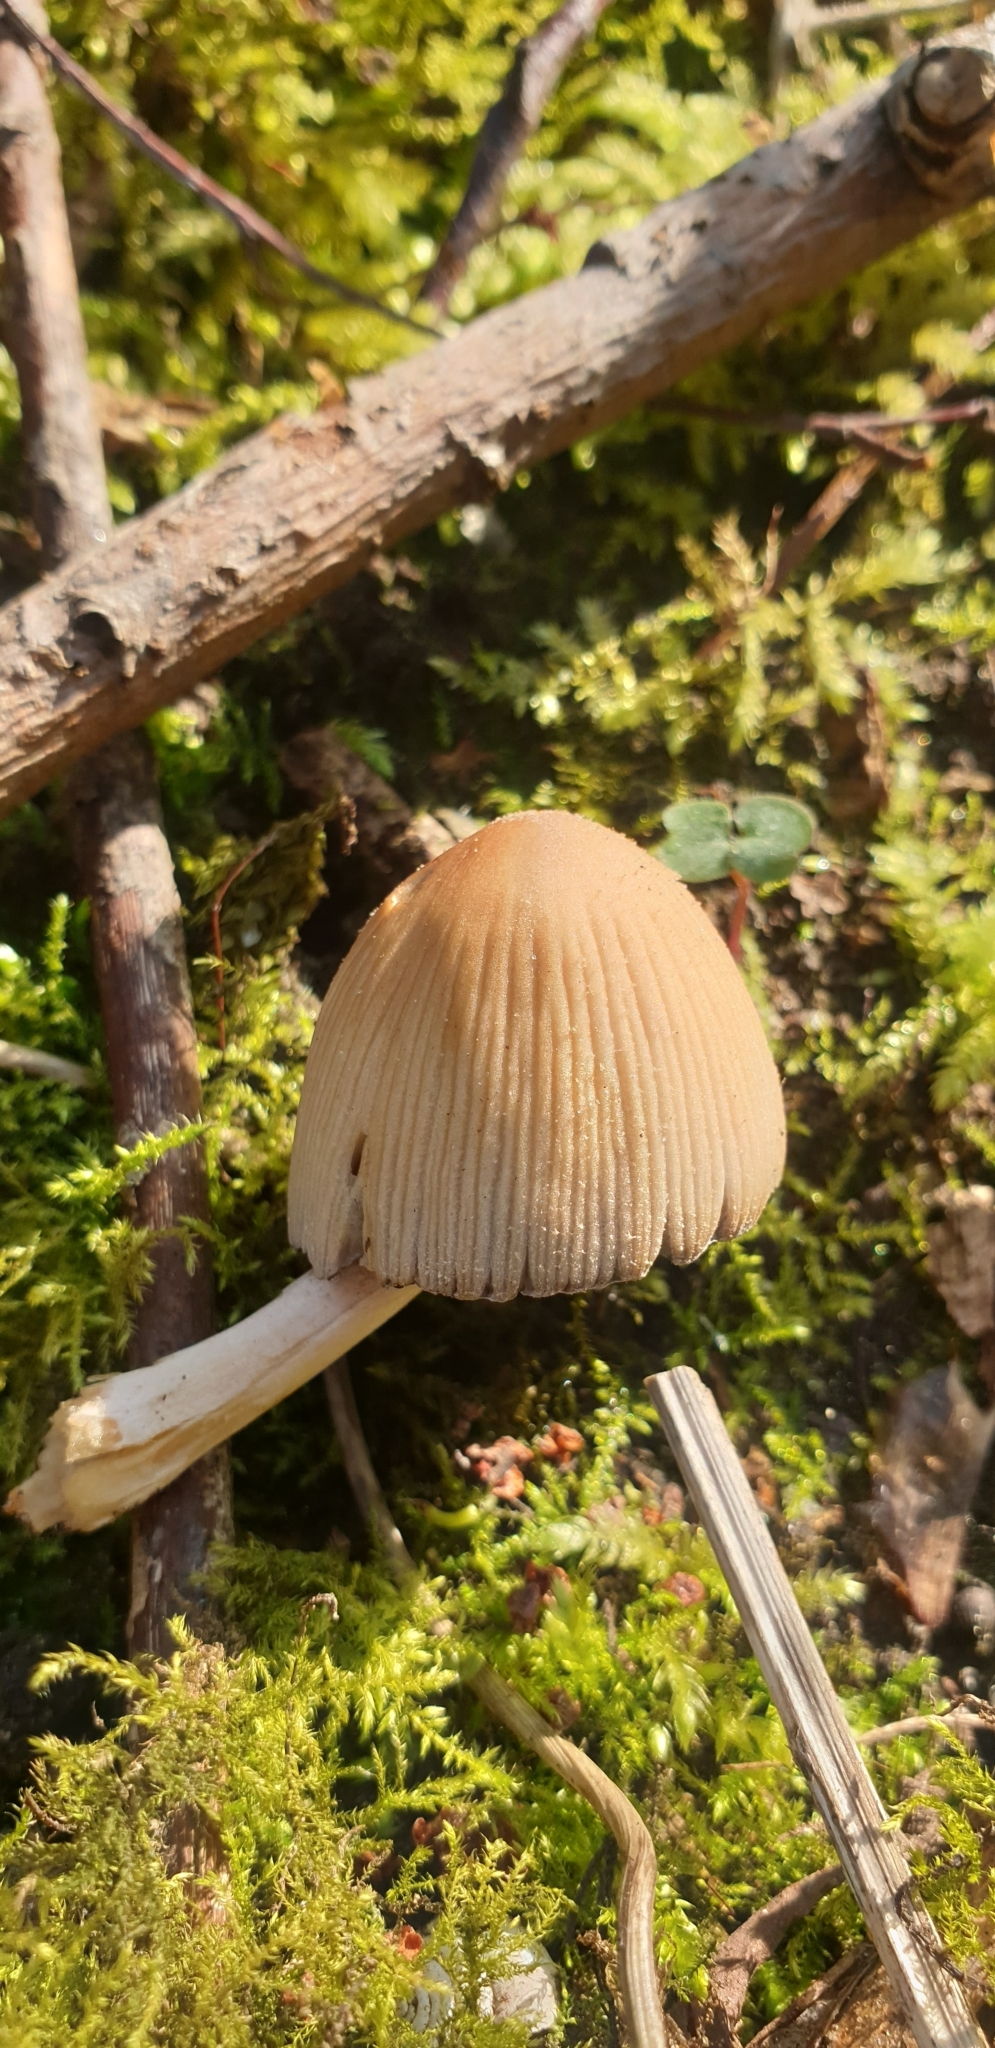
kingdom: Fungi
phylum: Basidiomycota
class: Agaricomycetes
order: Agaricales
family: Psathyrellaceae
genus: Coprinellus
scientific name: Coprinellus micaceus
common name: Glistening ink-cap
